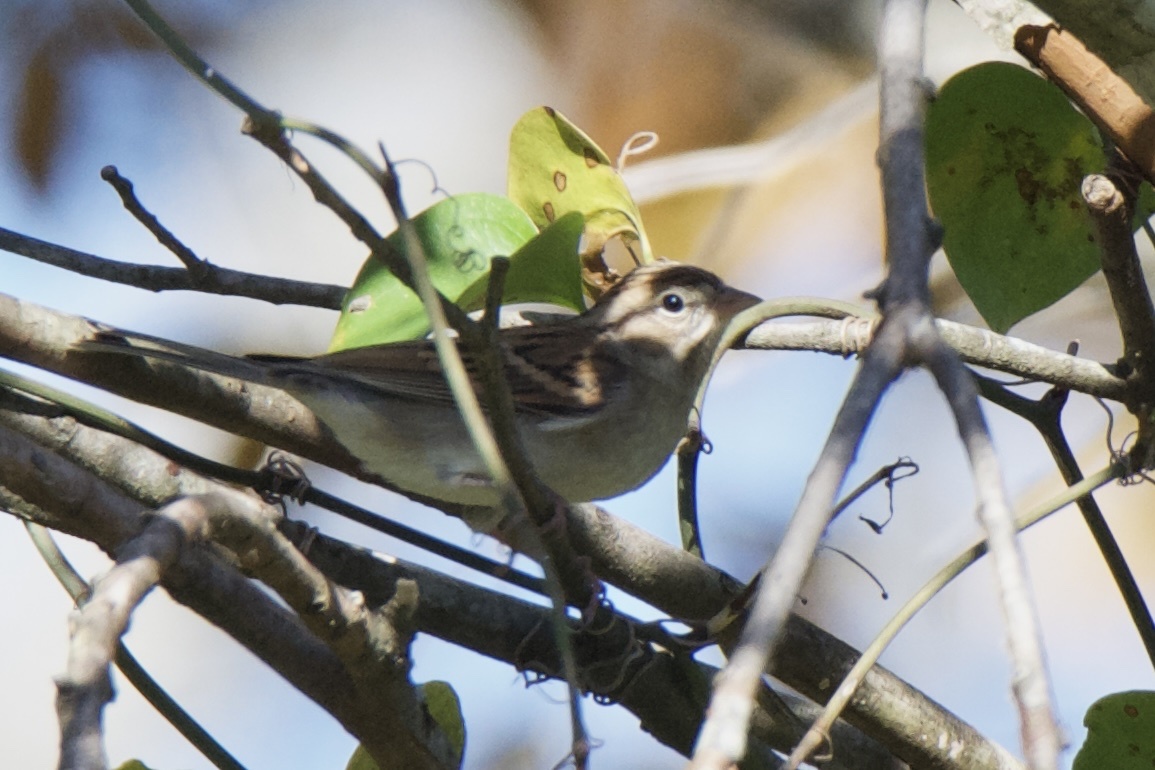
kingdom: Animalia
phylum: Chordata
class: Aves
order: Passeriformes
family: Passerellidae
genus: Spizella
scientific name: Spizella passerina
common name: Chipping sparrow
